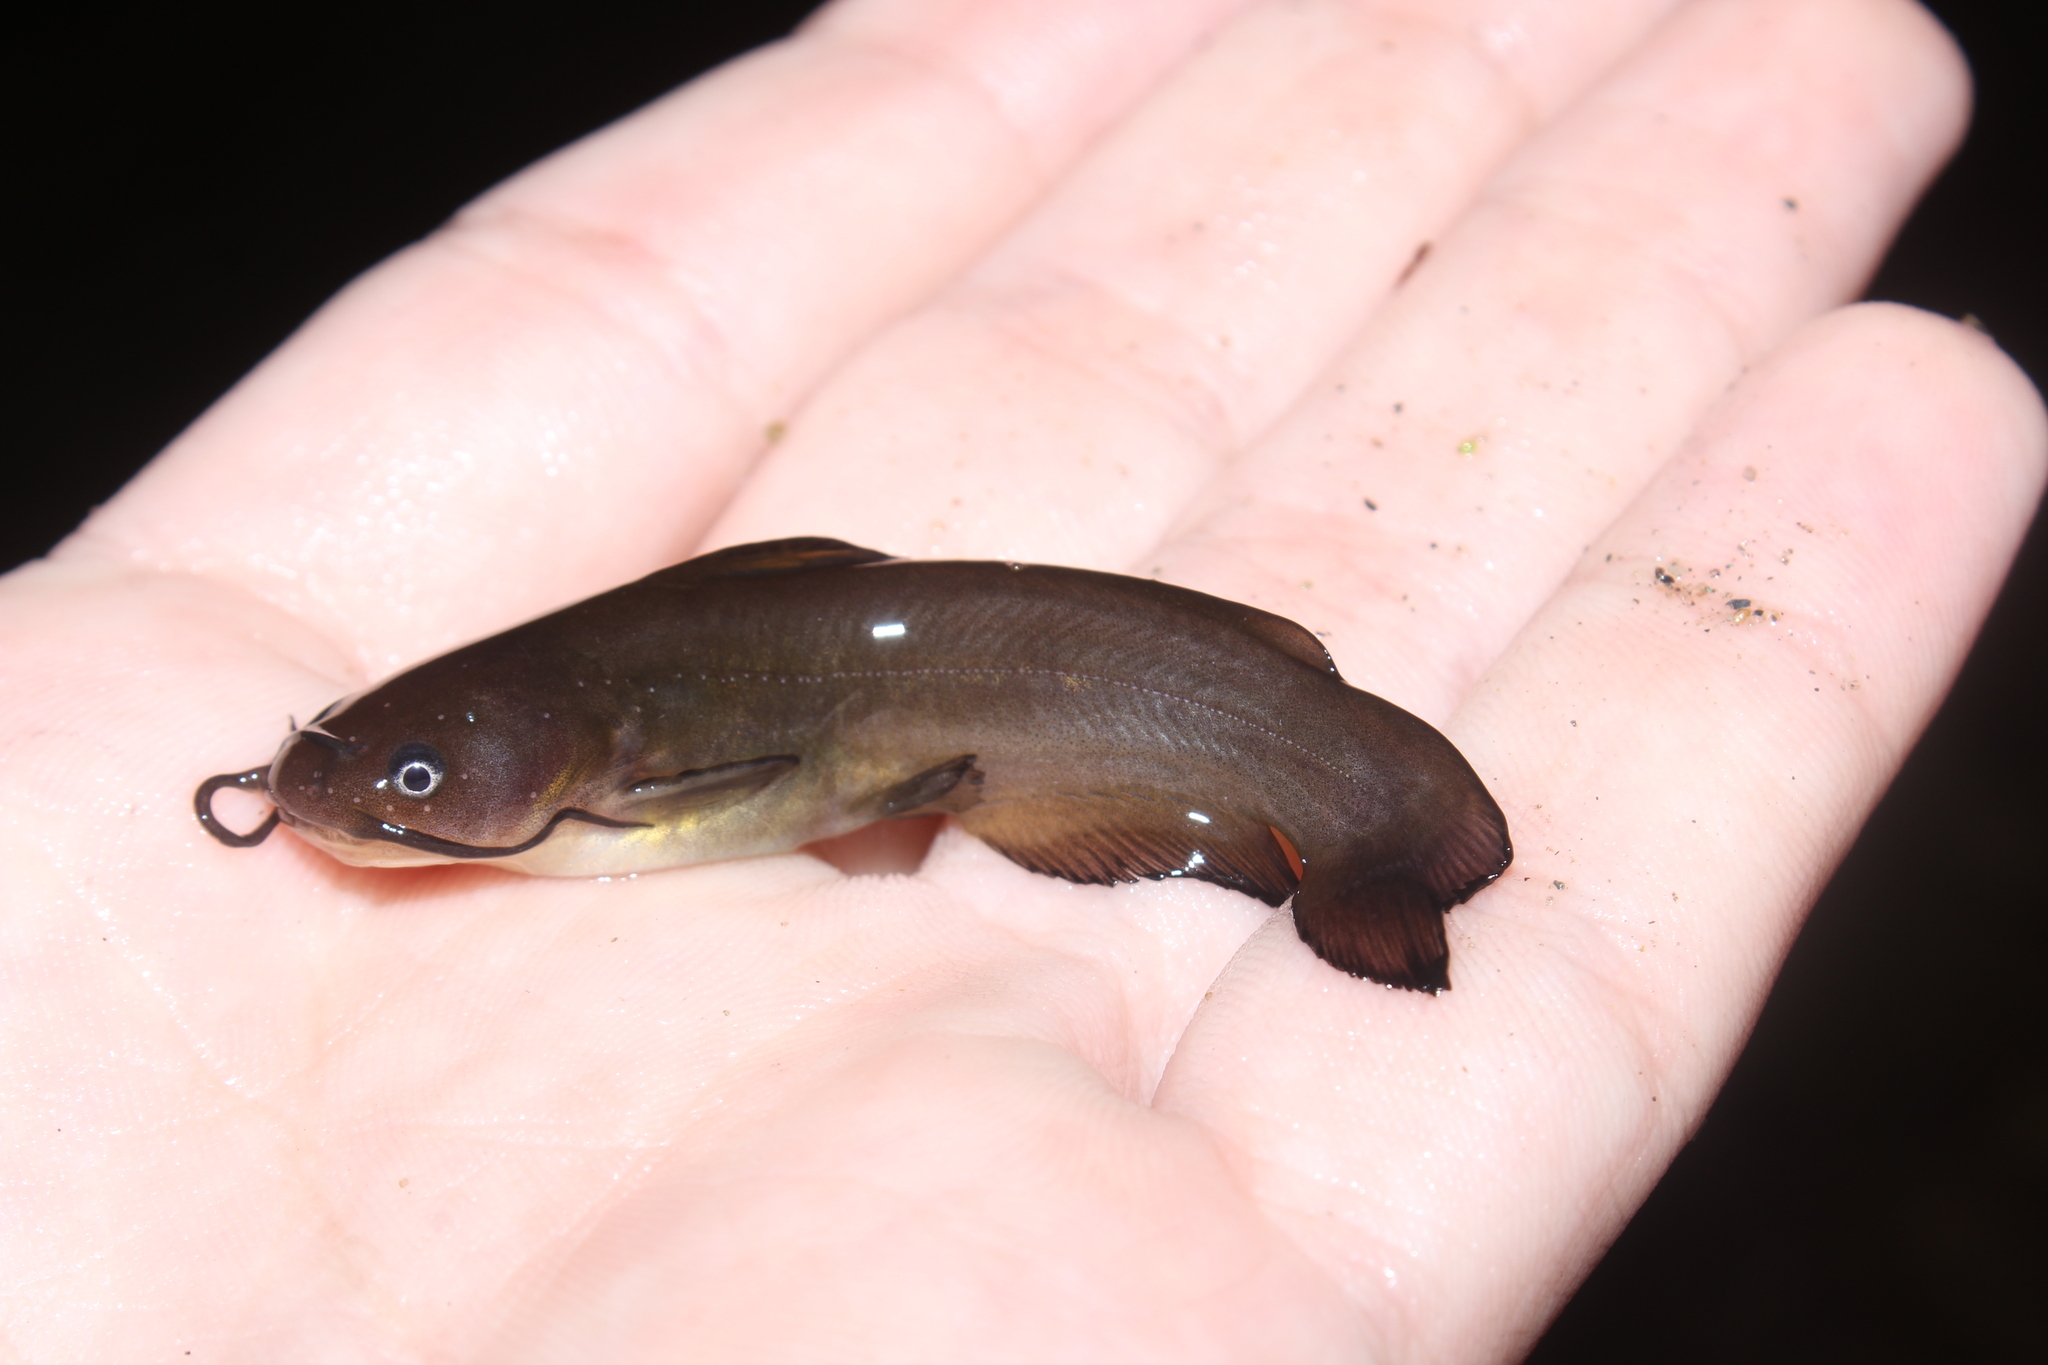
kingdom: Animalia
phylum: Chordata
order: Siluriformes
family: Ictaluridae
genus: Ameiurus
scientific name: Ameiurus natalis
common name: Yellow bullhead
